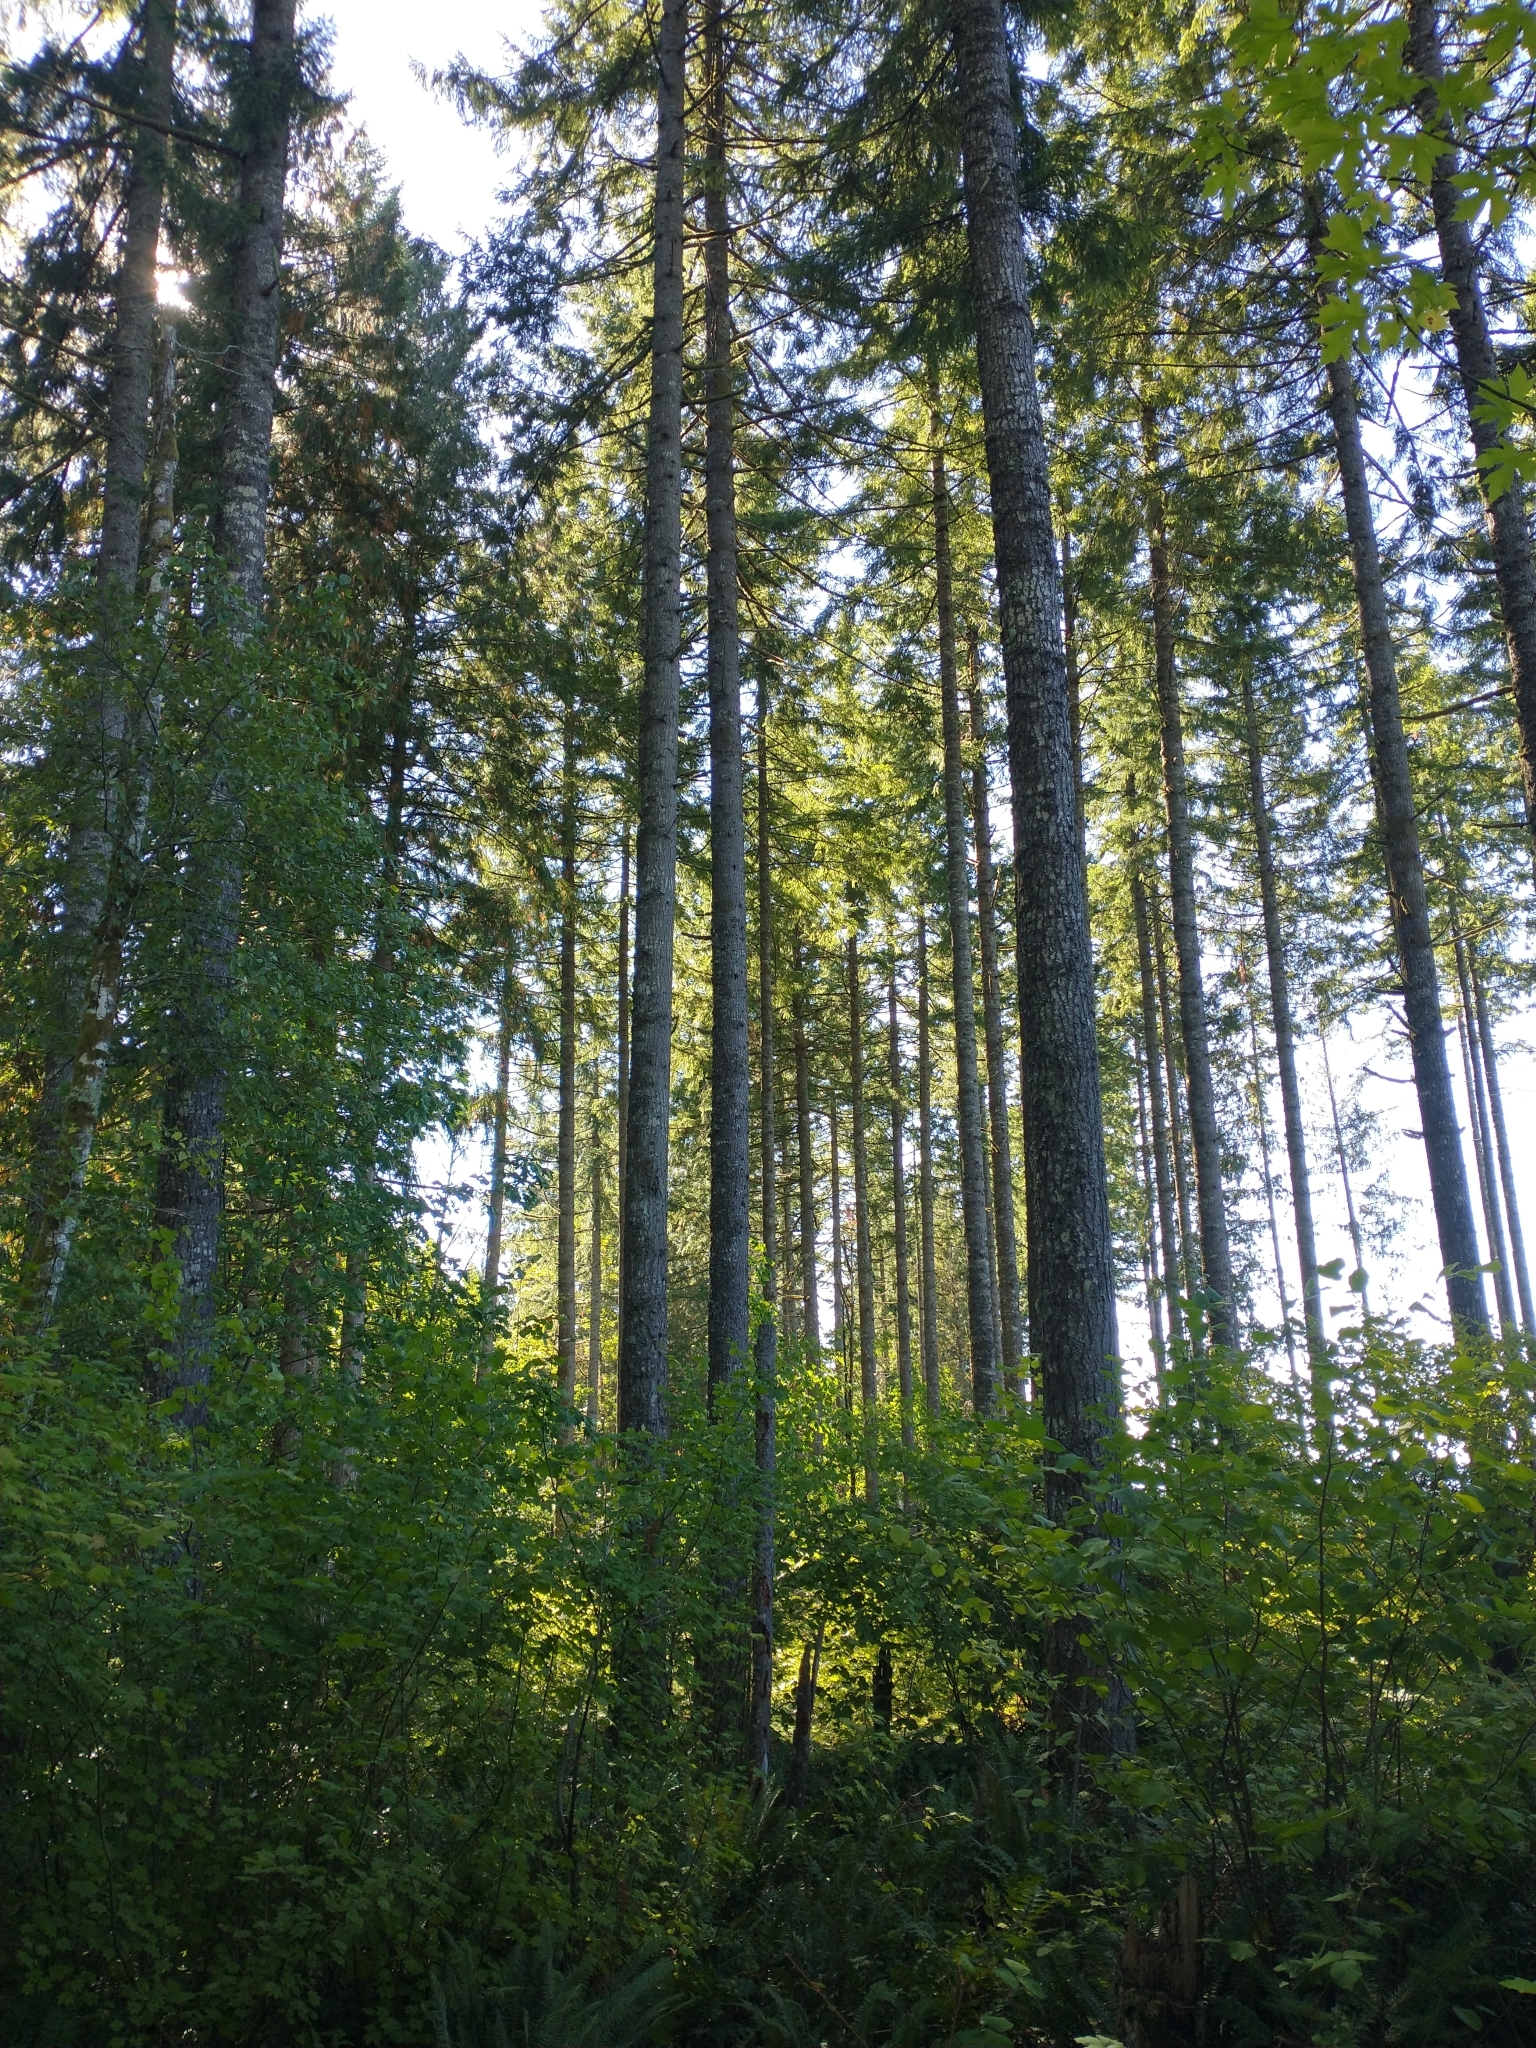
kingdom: Plantae
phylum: Tracheophyta
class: Pinopsida
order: Pinales
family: Pinaceae
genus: Pseudotsuga
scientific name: Pseudotsuga menziesii
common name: Douglas fir
